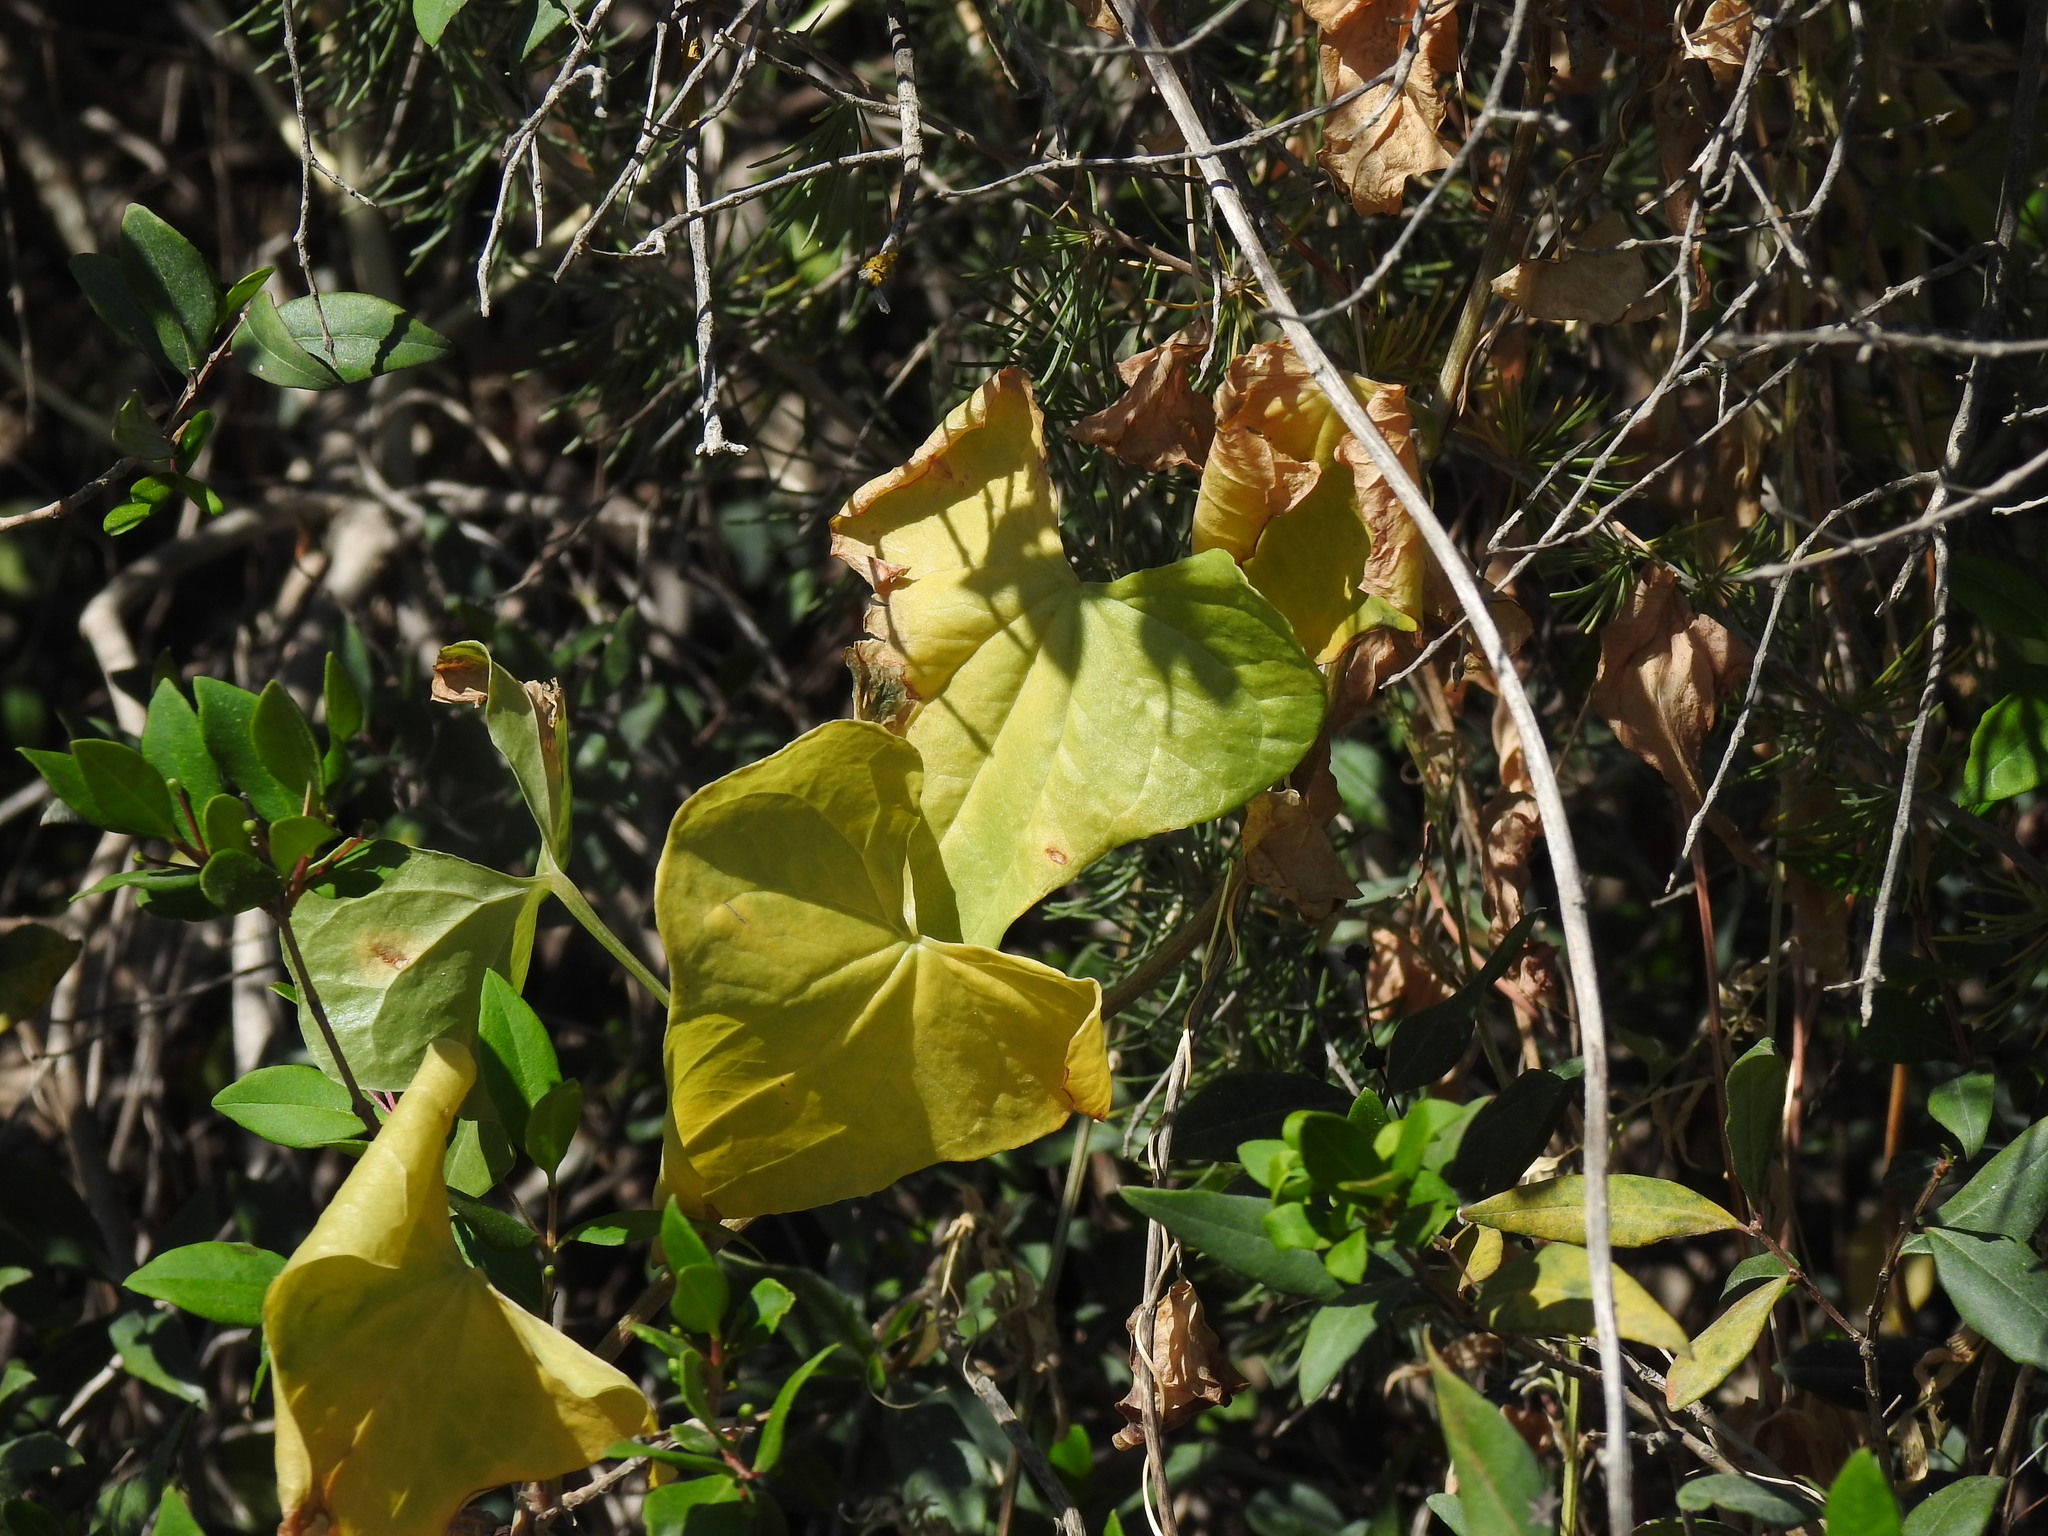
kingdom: Plantae
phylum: Tracheophyta
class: Liliopsida
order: Dioscoreales
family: Dioscoreaceae
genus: Dioscorea
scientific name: Dioscorea communis
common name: Black-bindweed
